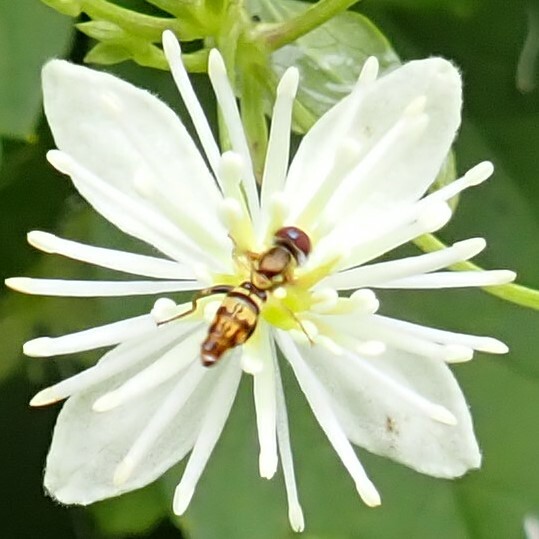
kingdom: Animalia
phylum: Arthropoda
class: Insecta
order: Diptera
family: Syrphidae
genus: Toxomerus
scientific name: Toxomerus geminatus
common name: Eastern calligrapher
